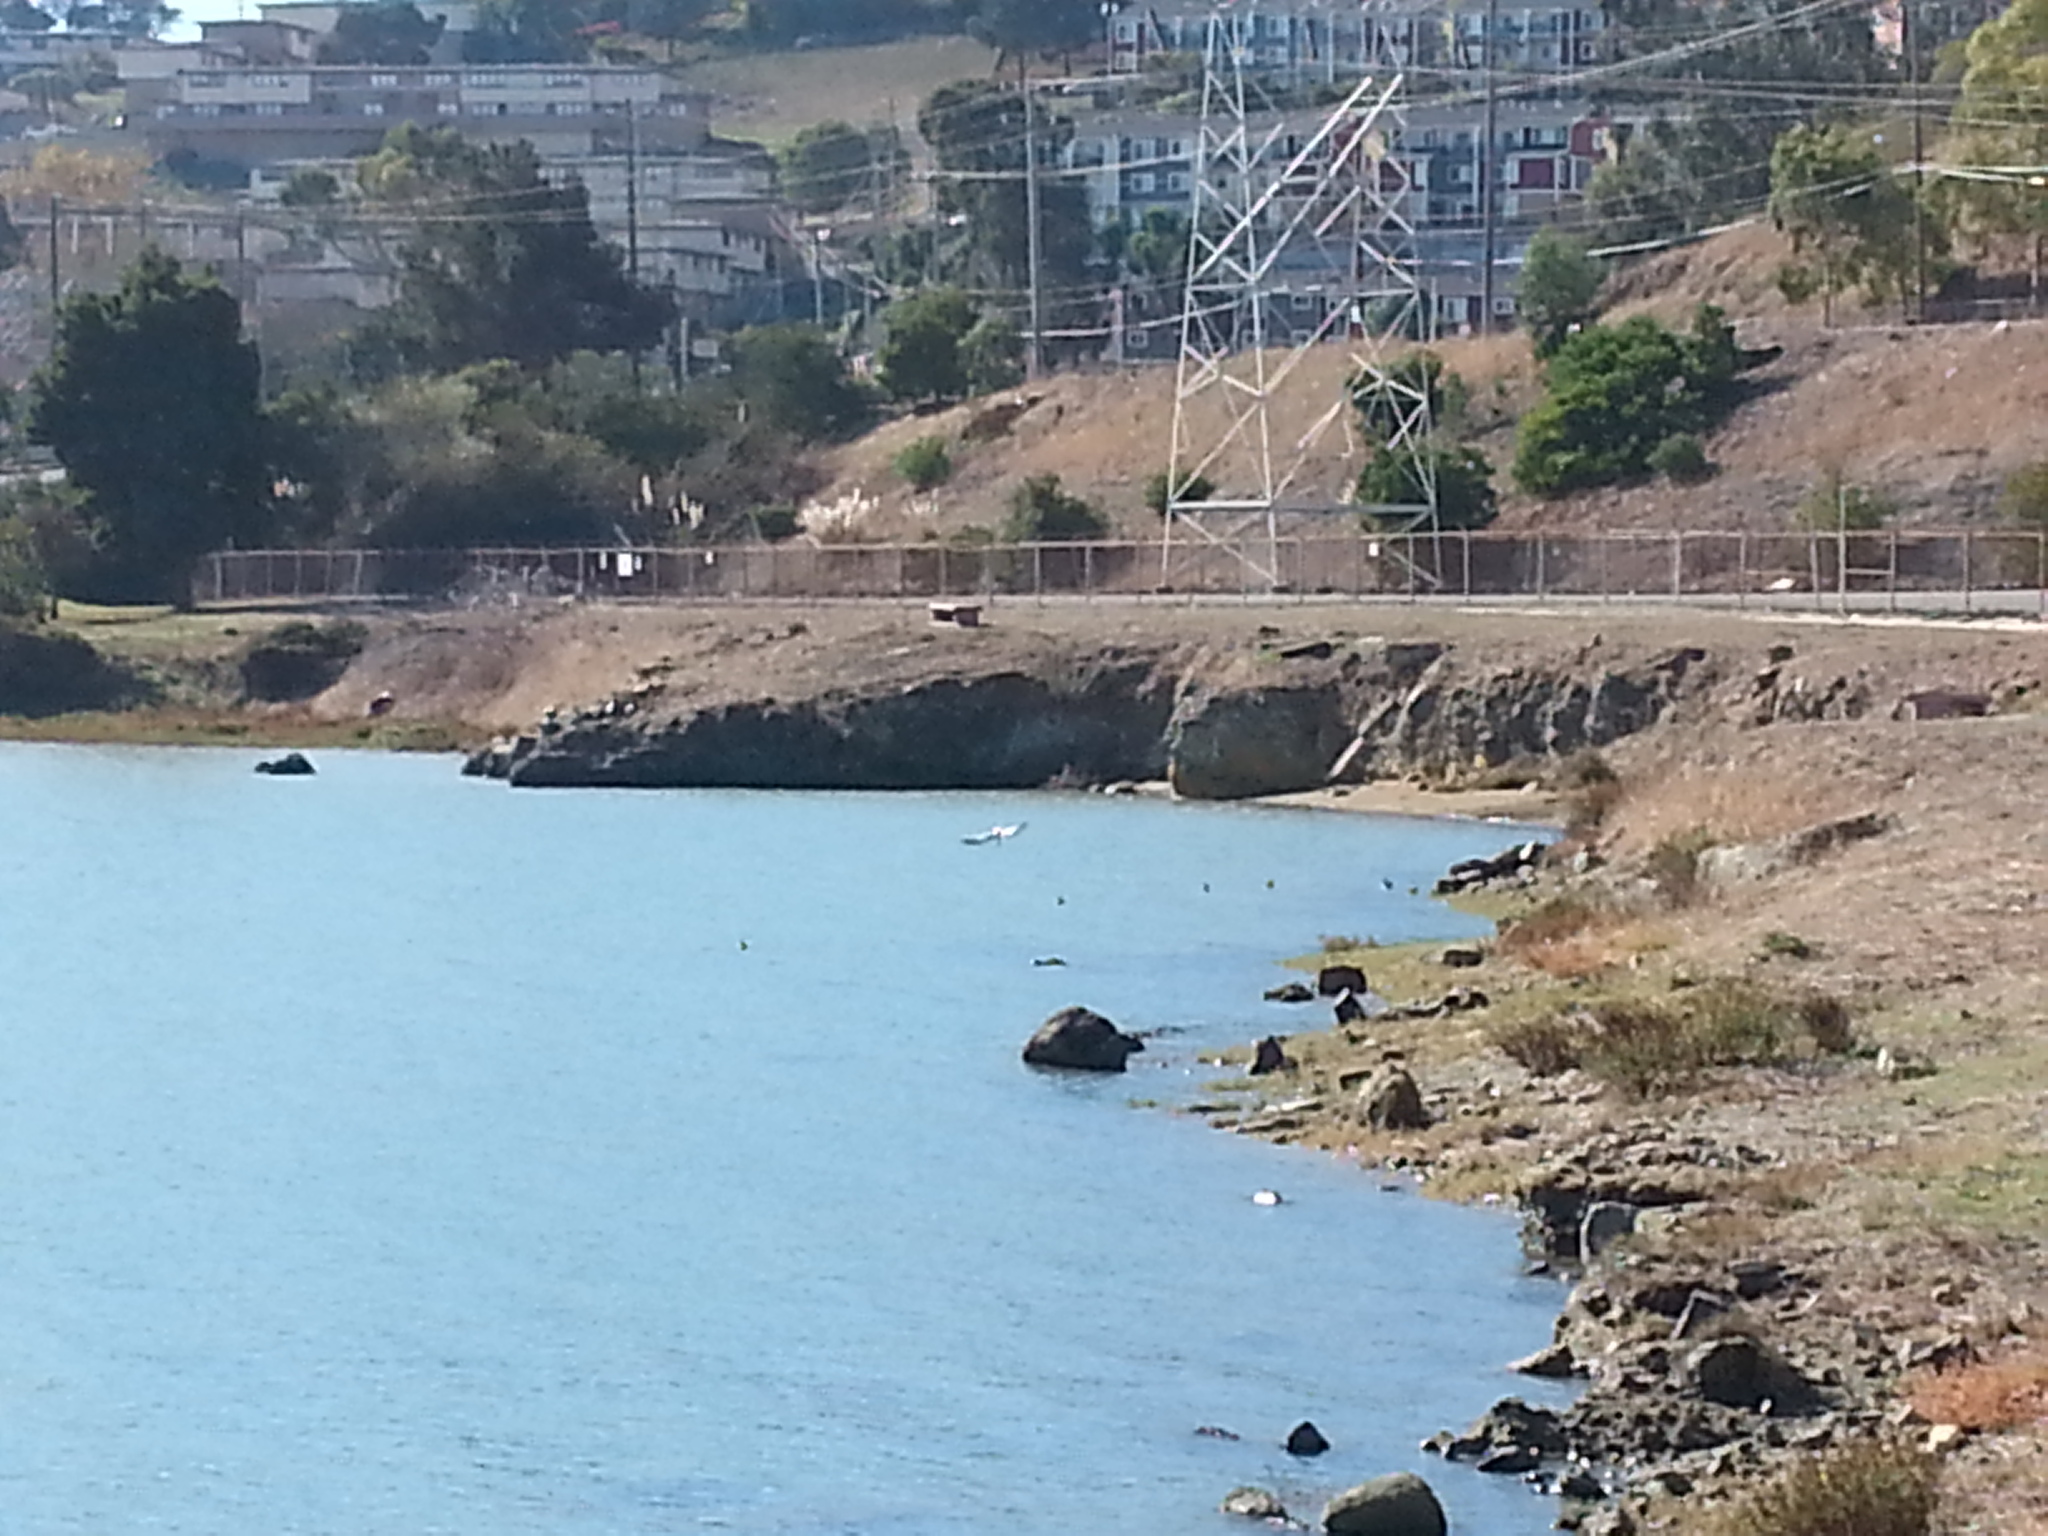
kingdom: Animalia
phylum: Chordata
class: Aves
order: Pelecaniformes
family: Pelecanidae
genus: Pelecanus
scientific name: Pelecanus occidentalis
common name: Brown pelican
